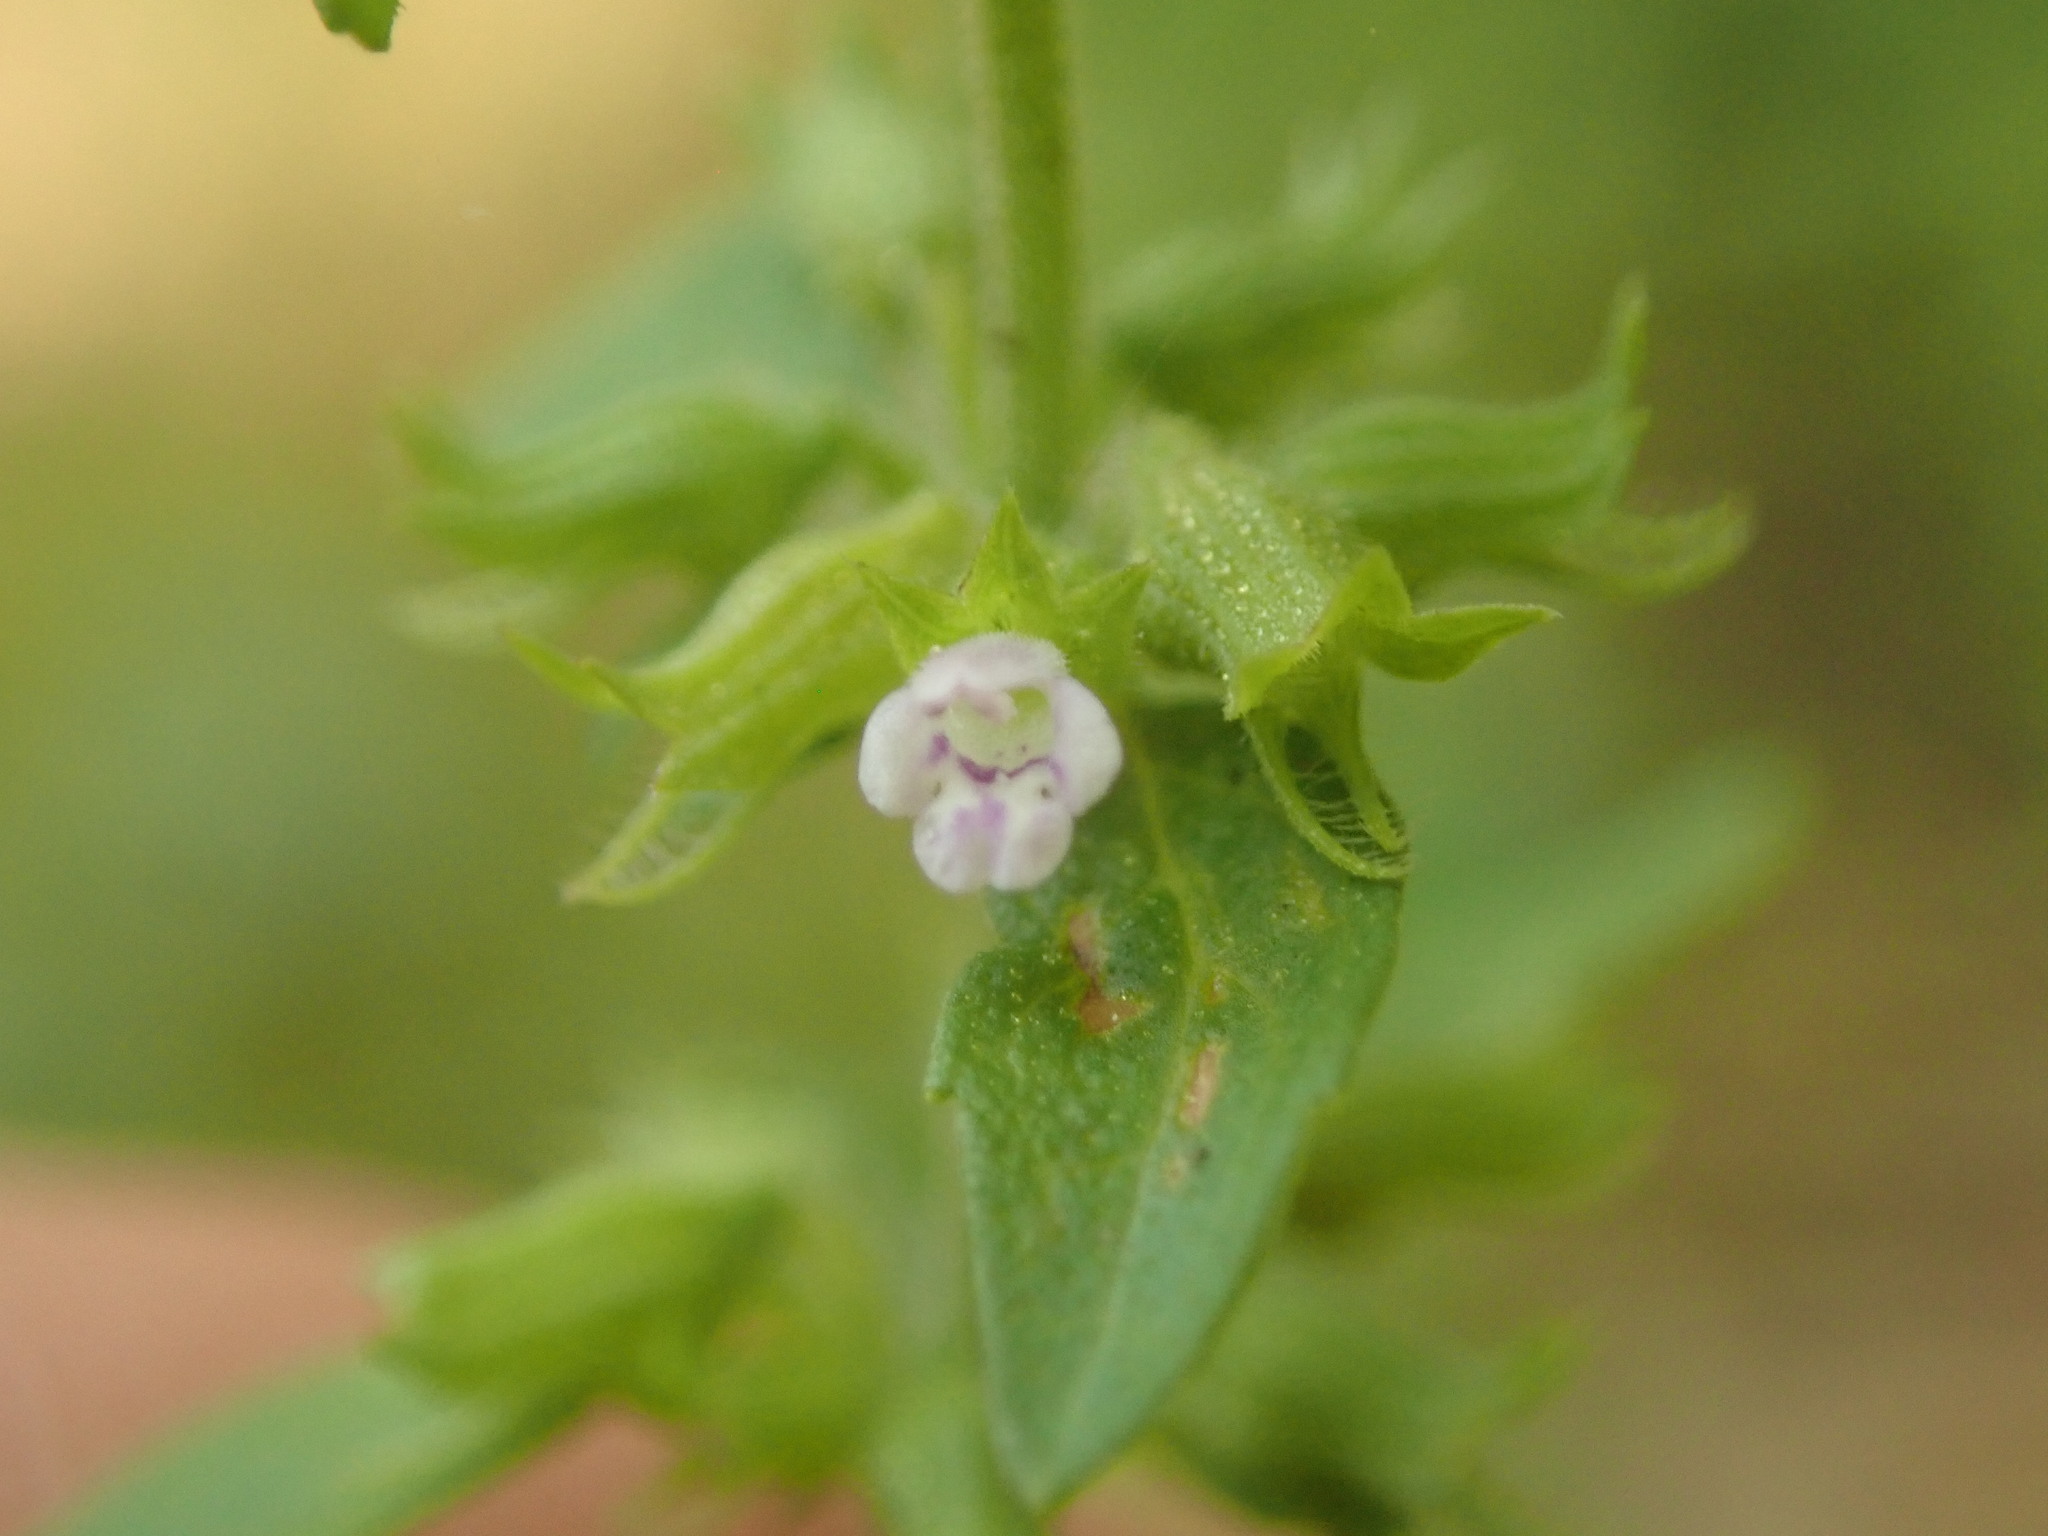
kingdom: Plantae
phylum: Tracheophyta
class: Magnoliopsida
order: Lamiales
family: Lamiaceae
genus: Hedeoma
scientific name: Hedeoma pulegioides
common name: American false pennyroyal
